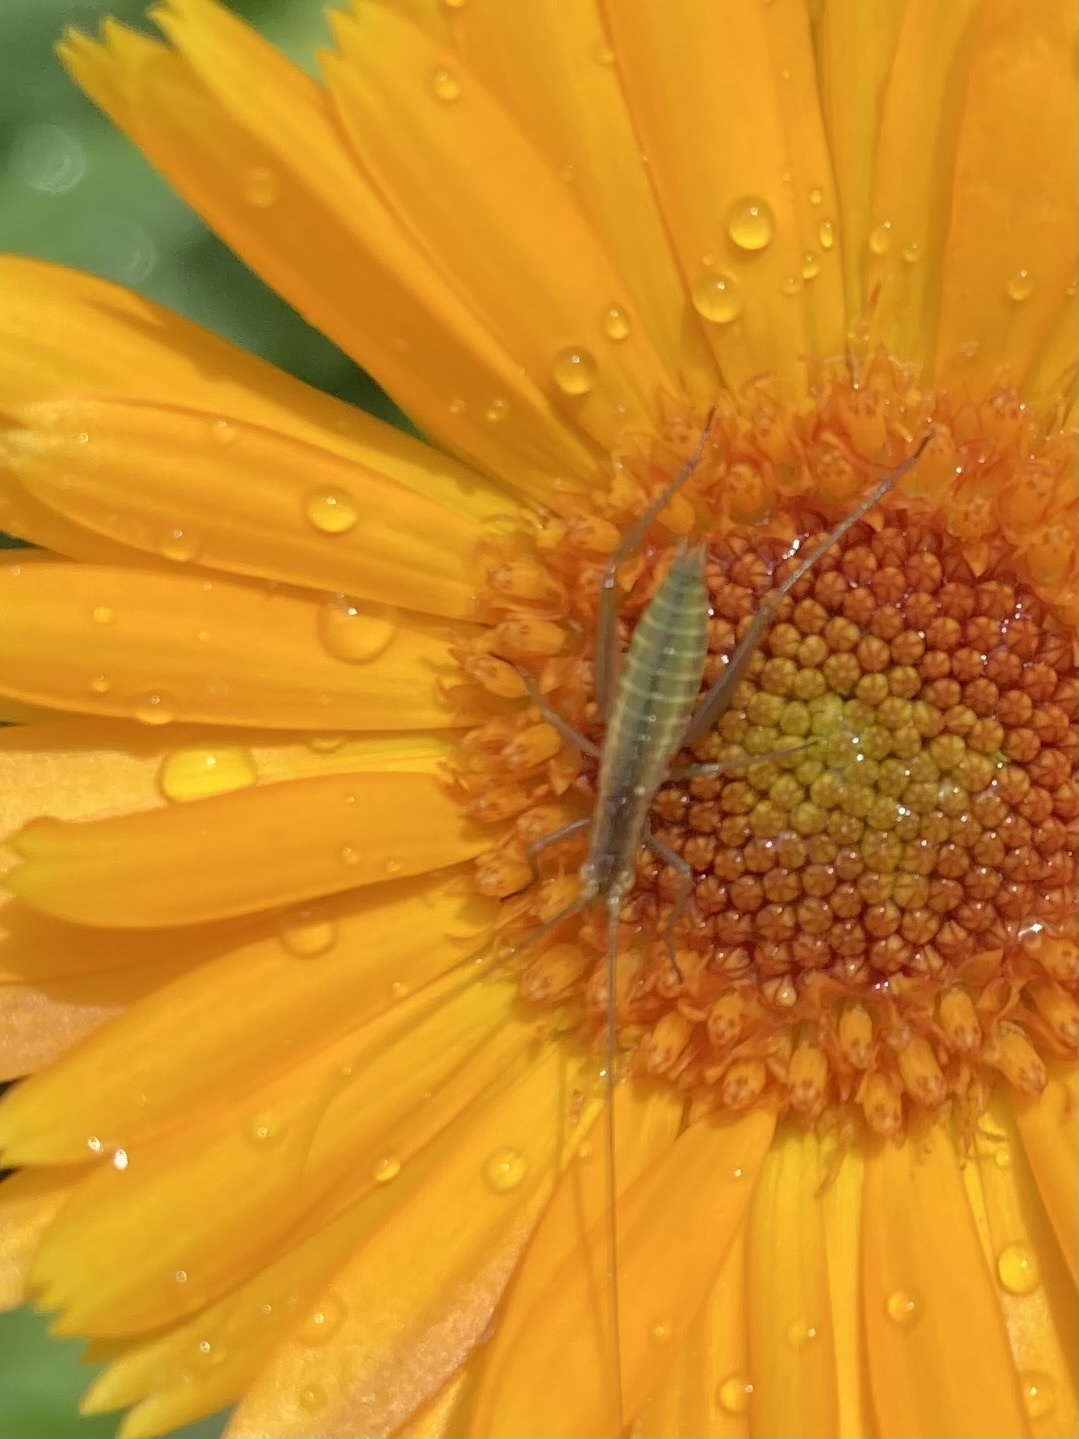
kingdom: Animalia
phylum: Arthropoda
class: Insecta
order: Orthoptera
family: Gryllidae
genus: Oecanthus
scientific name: Oecanthus pini
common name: Pine tree cricket
